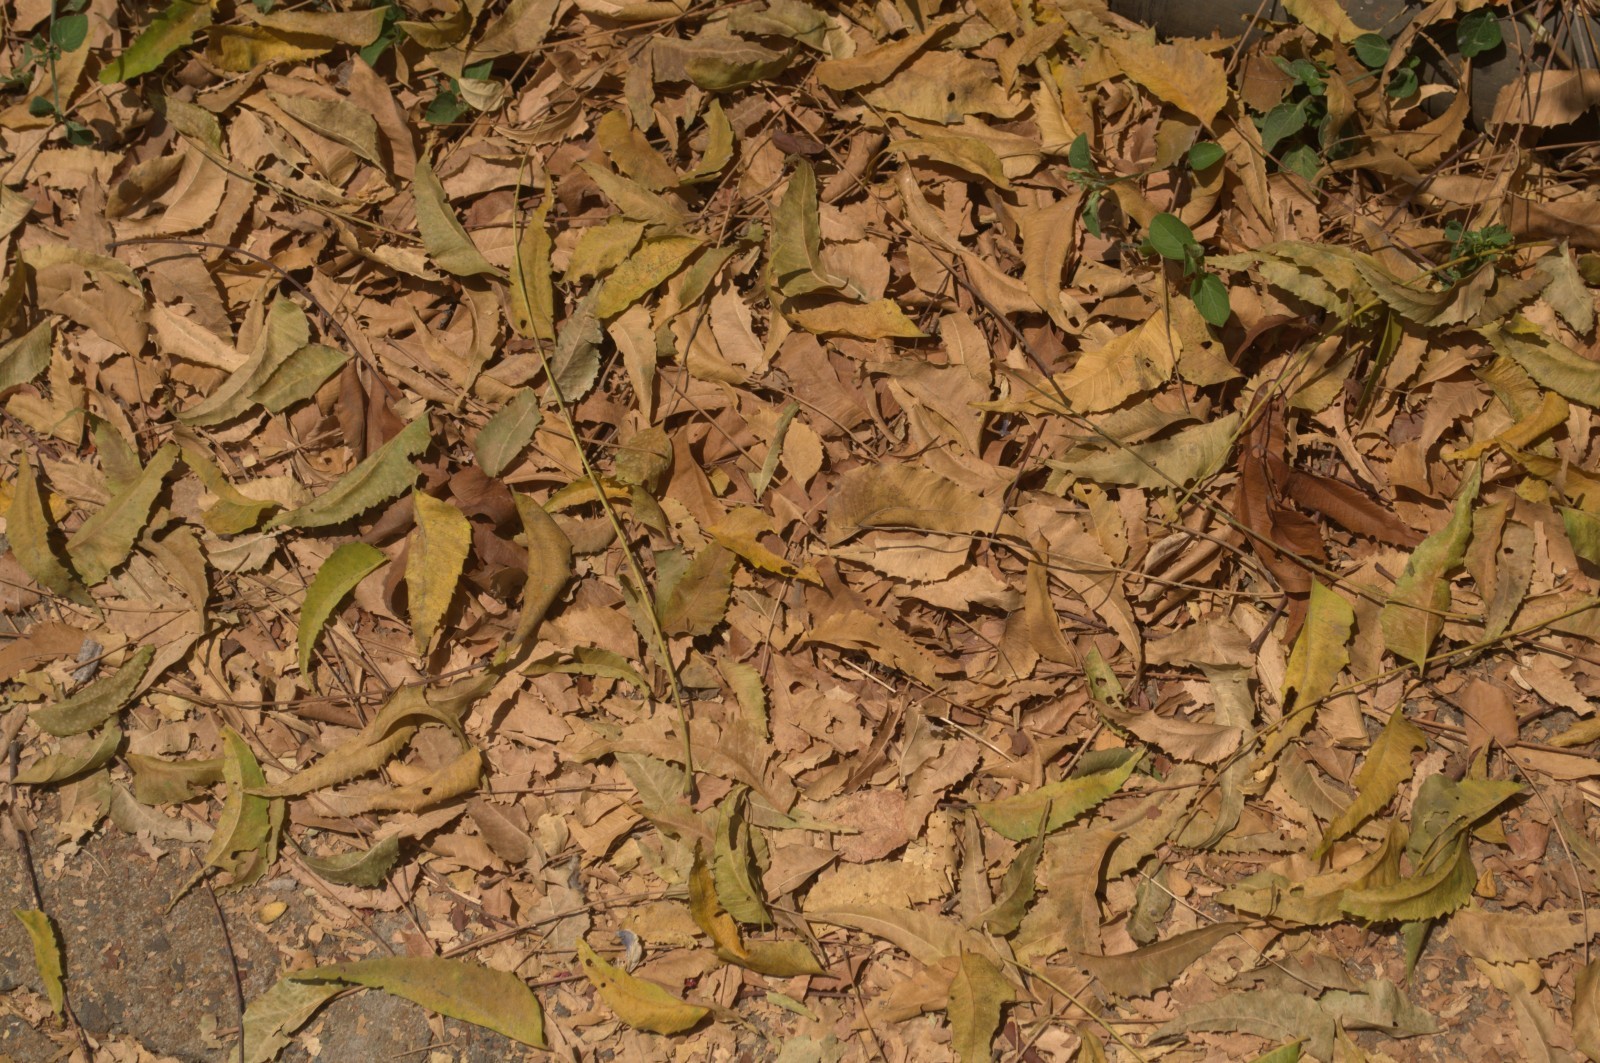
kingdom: Plantae
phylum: Tracheophyta
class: Magnoliopsida
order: Sapindales
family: Meliaceae
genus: Azadirachta
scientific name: Azadirachta indica
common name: Neem
